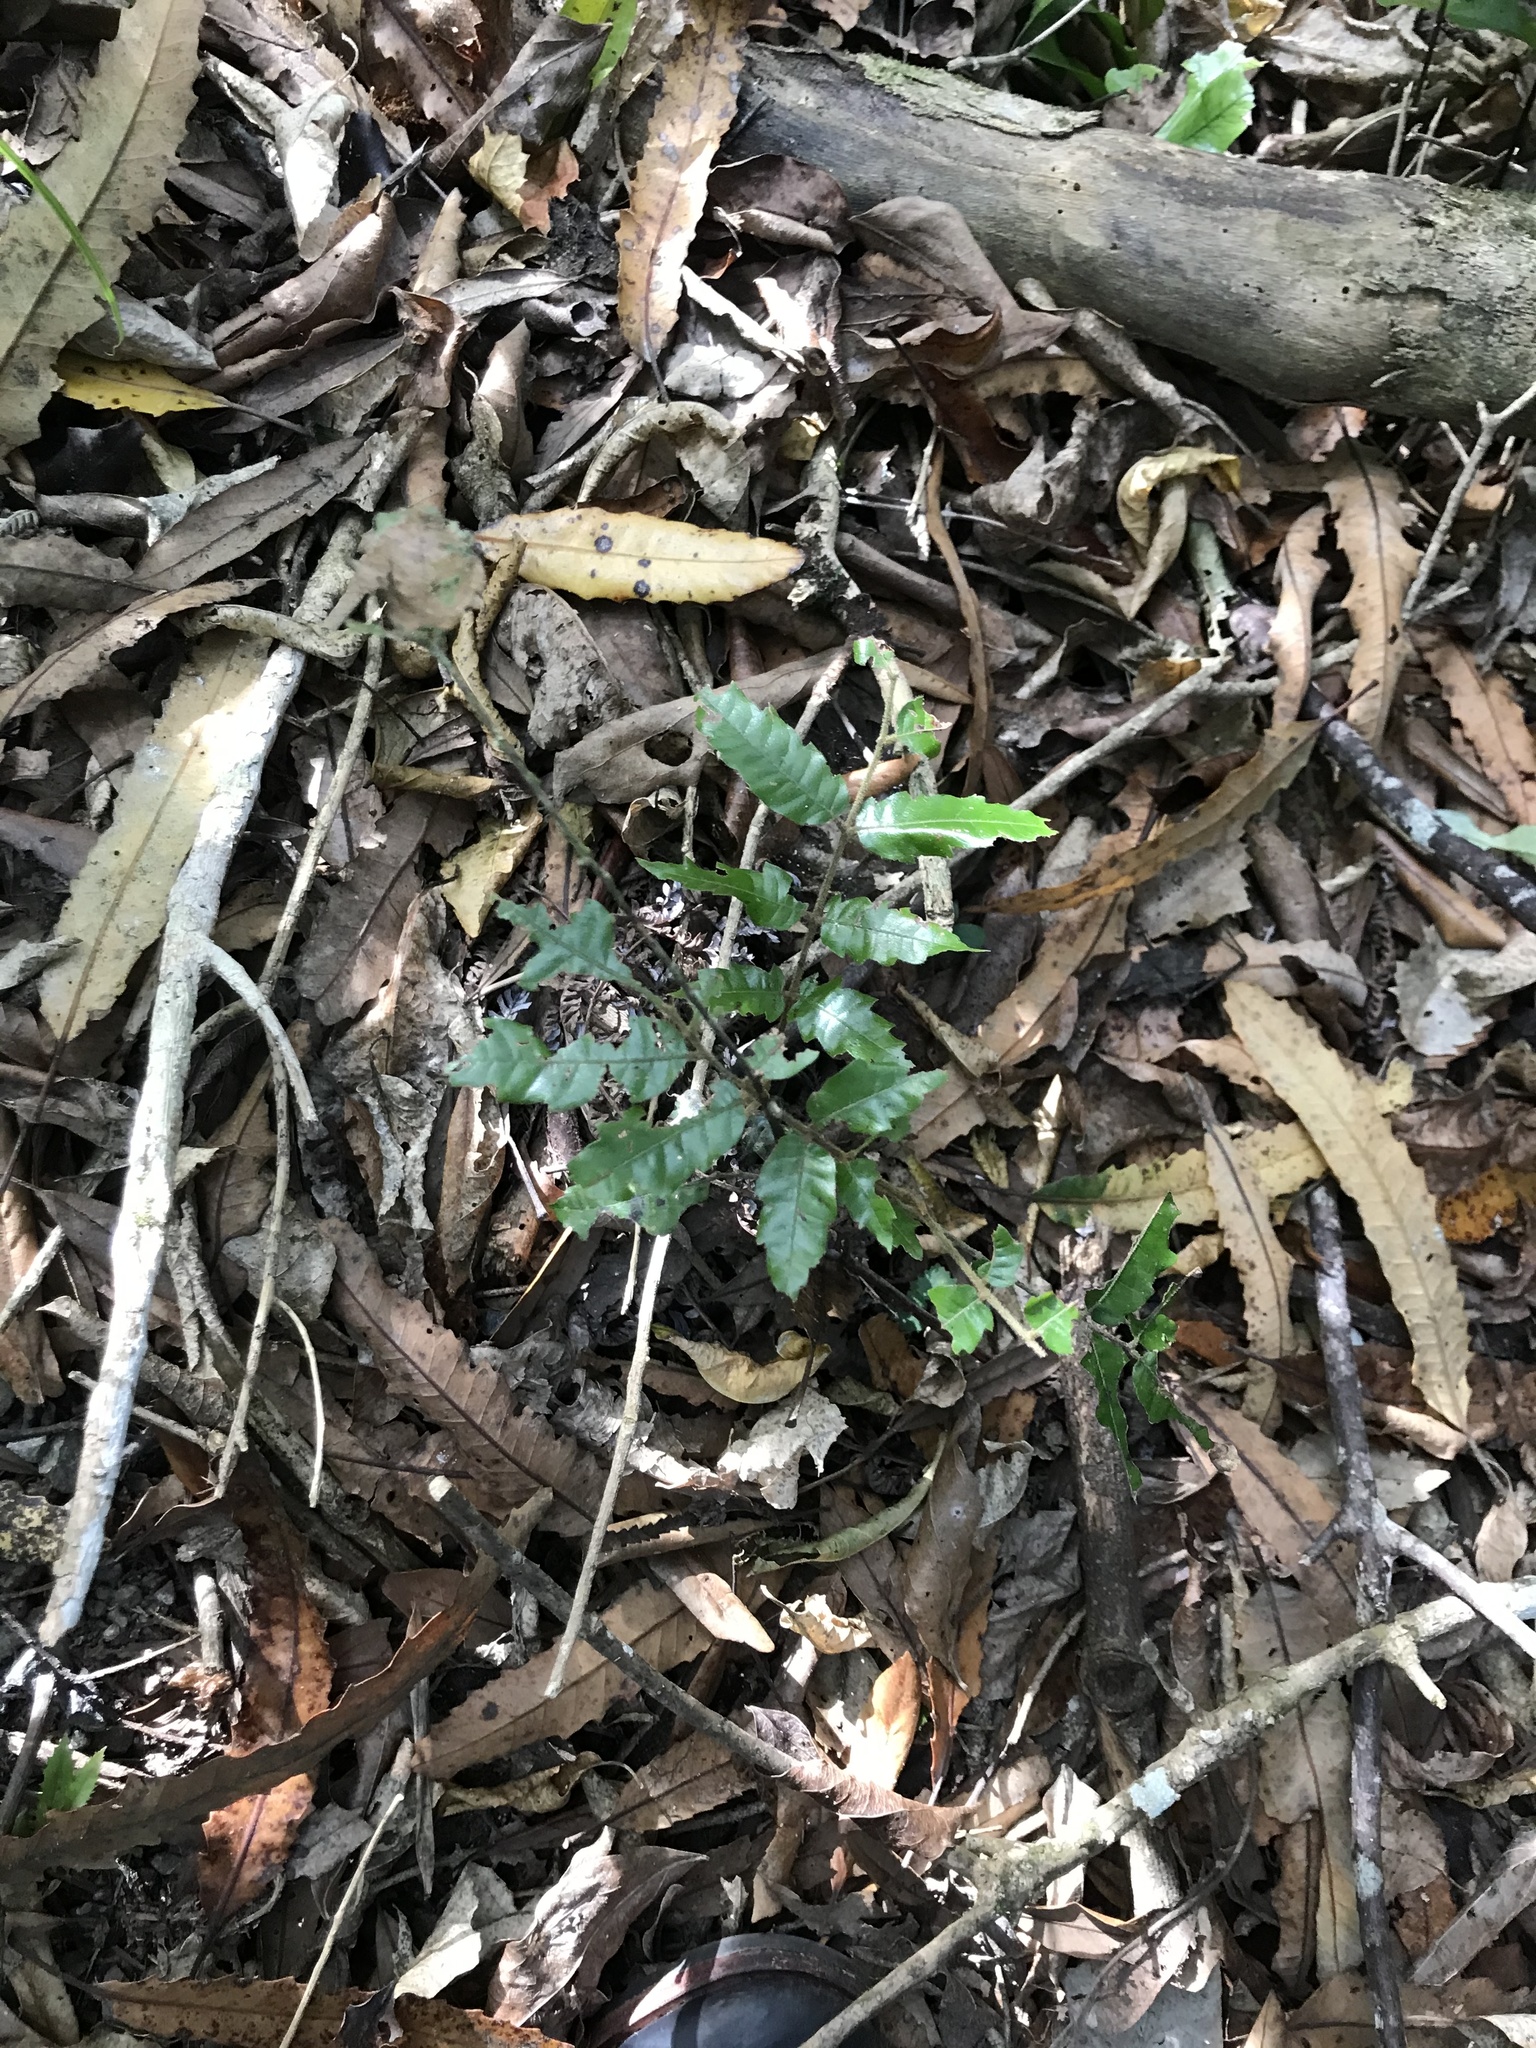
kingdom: Plantae
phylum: Tracheophyta
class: Magnoliopsida
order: Sapindales
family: Sapindaceae
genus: Alectryon
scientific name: Alectryon excelsus
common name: Three kings titoki
